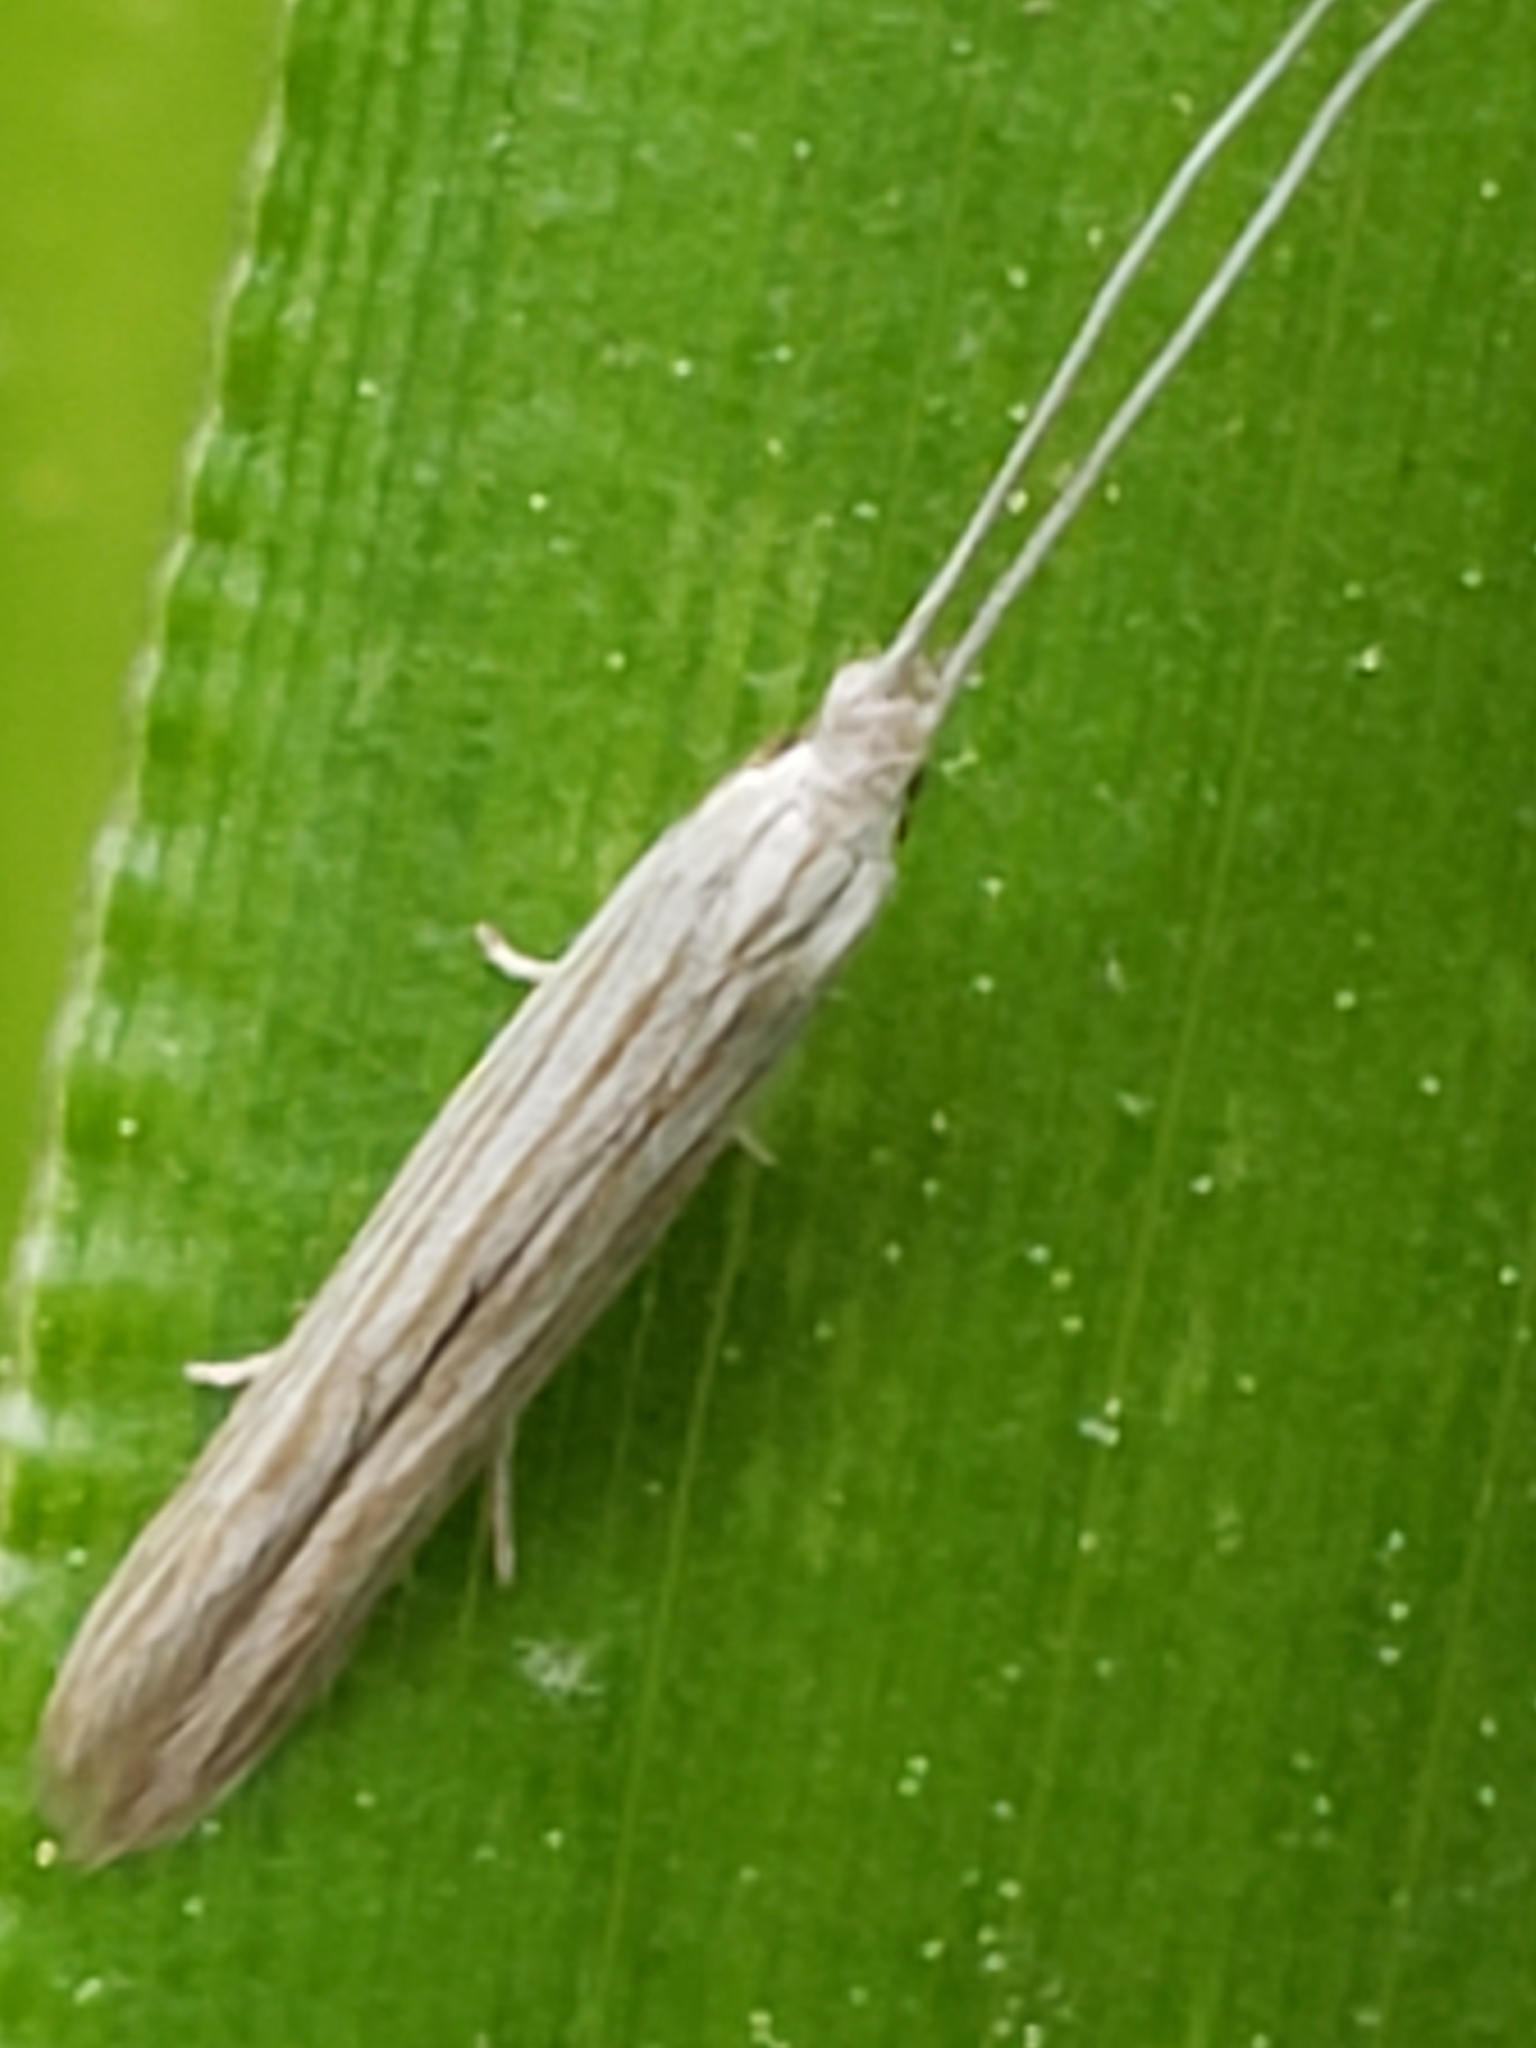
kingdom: Animalia
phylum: Arthropoda
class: Insecta
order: Lepidoptera
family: Coleophoridae
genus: Coleophora
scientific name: Coleophora cratipennella
